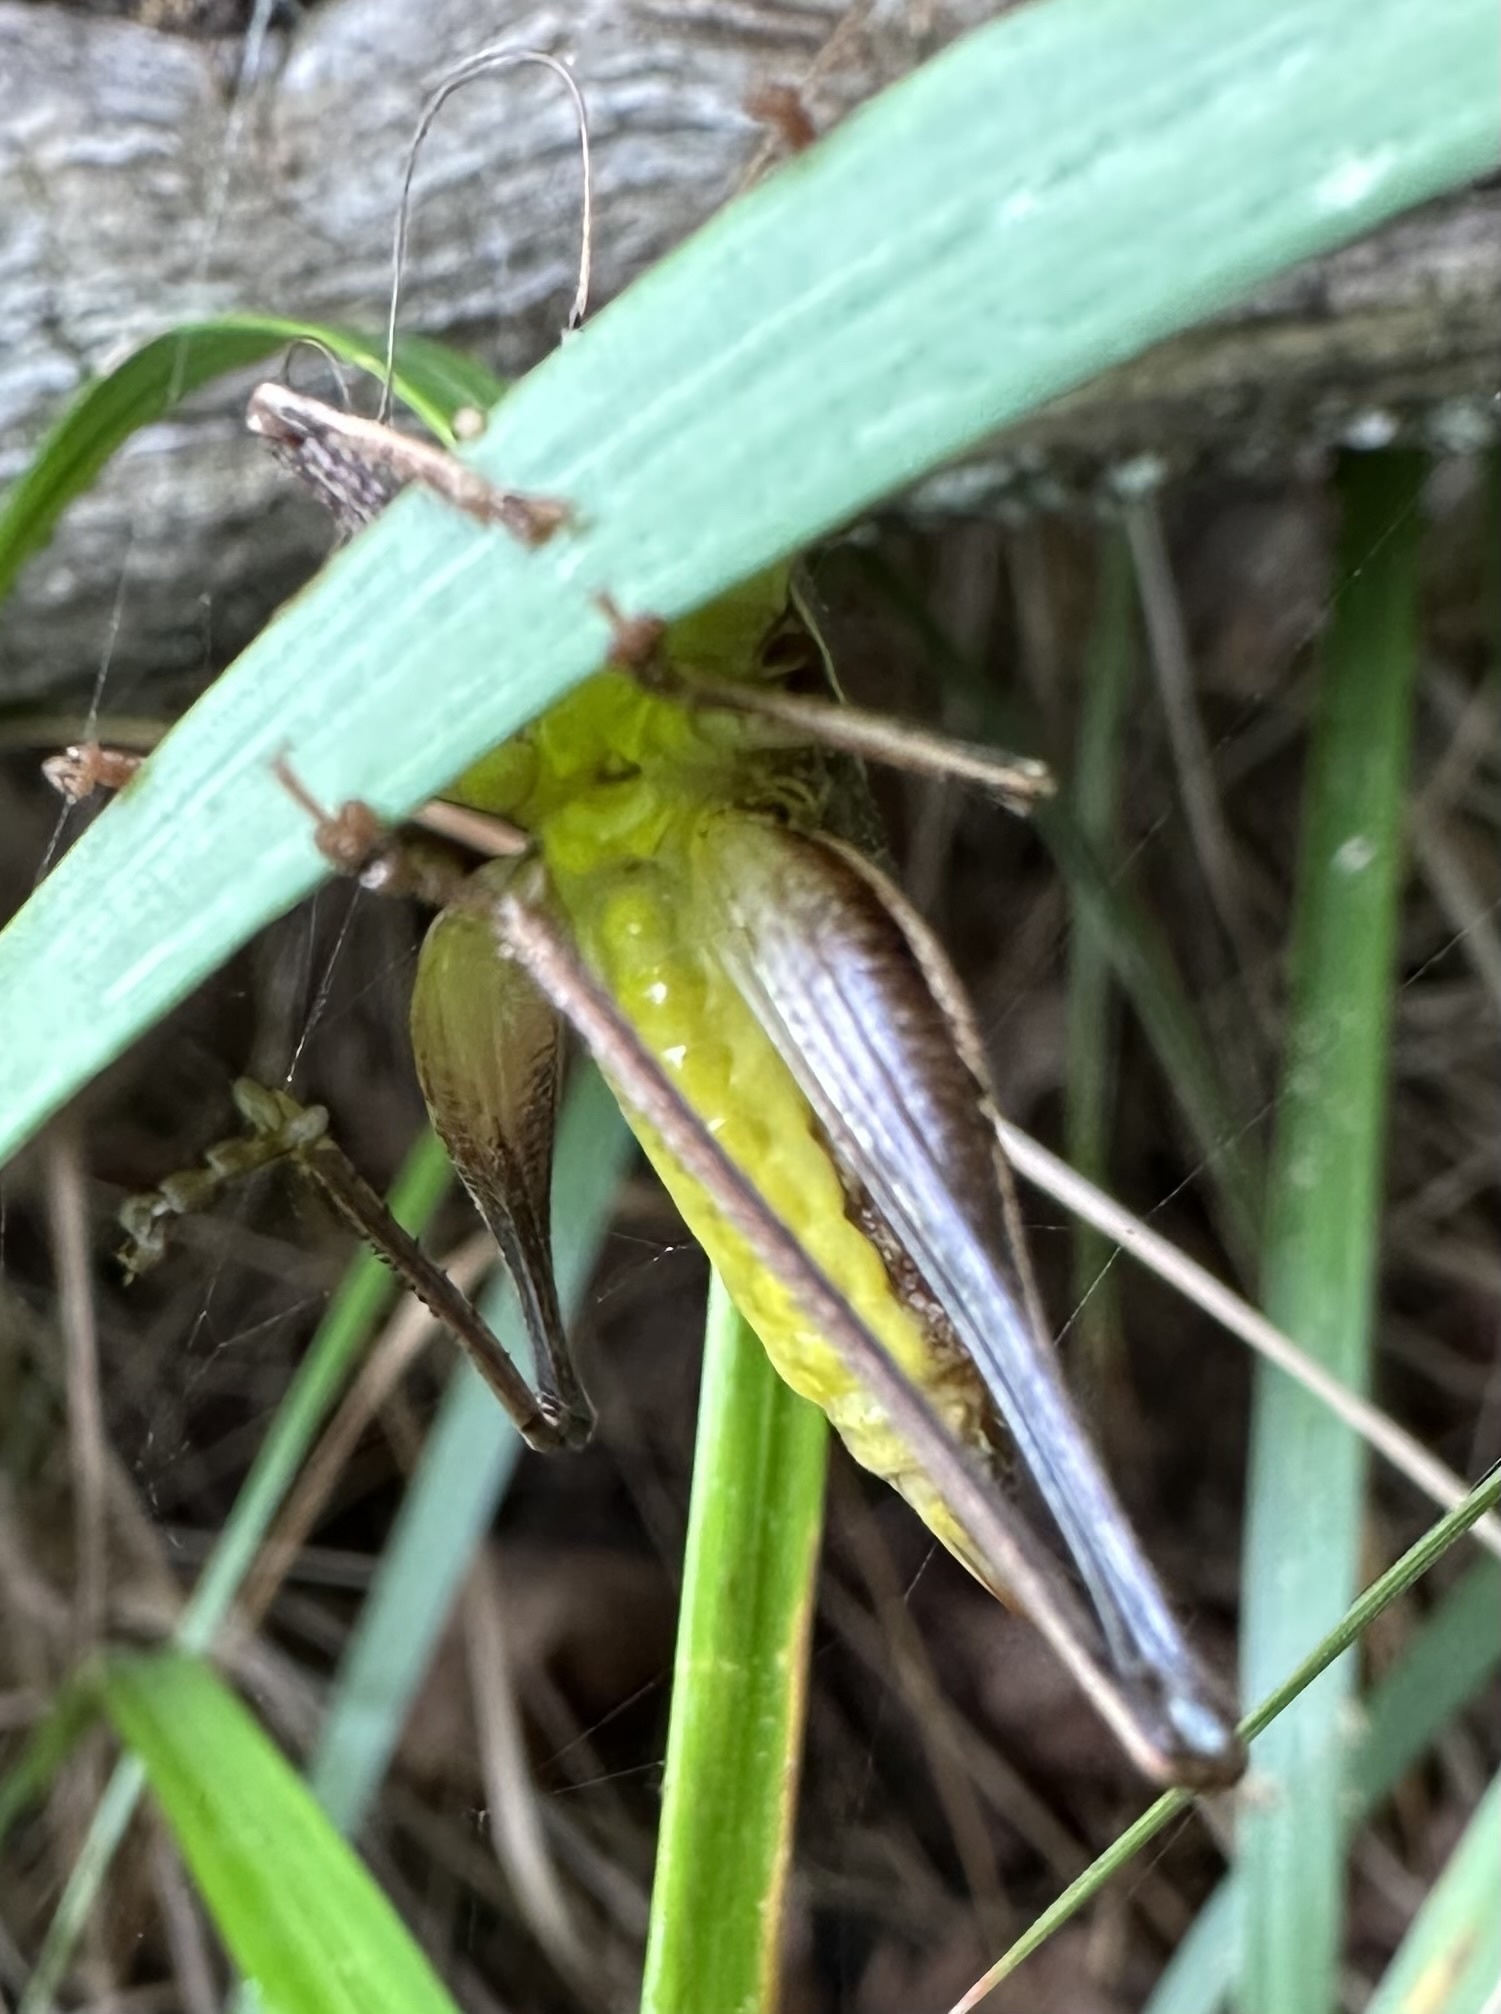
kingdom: Animalia
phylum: Arthropoda
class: Insecta
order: Orthoptera
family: Tettigoniidae
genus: Pholidoptera
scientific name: Pholidoptera griseoaptera
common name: Dark bush-cricket
